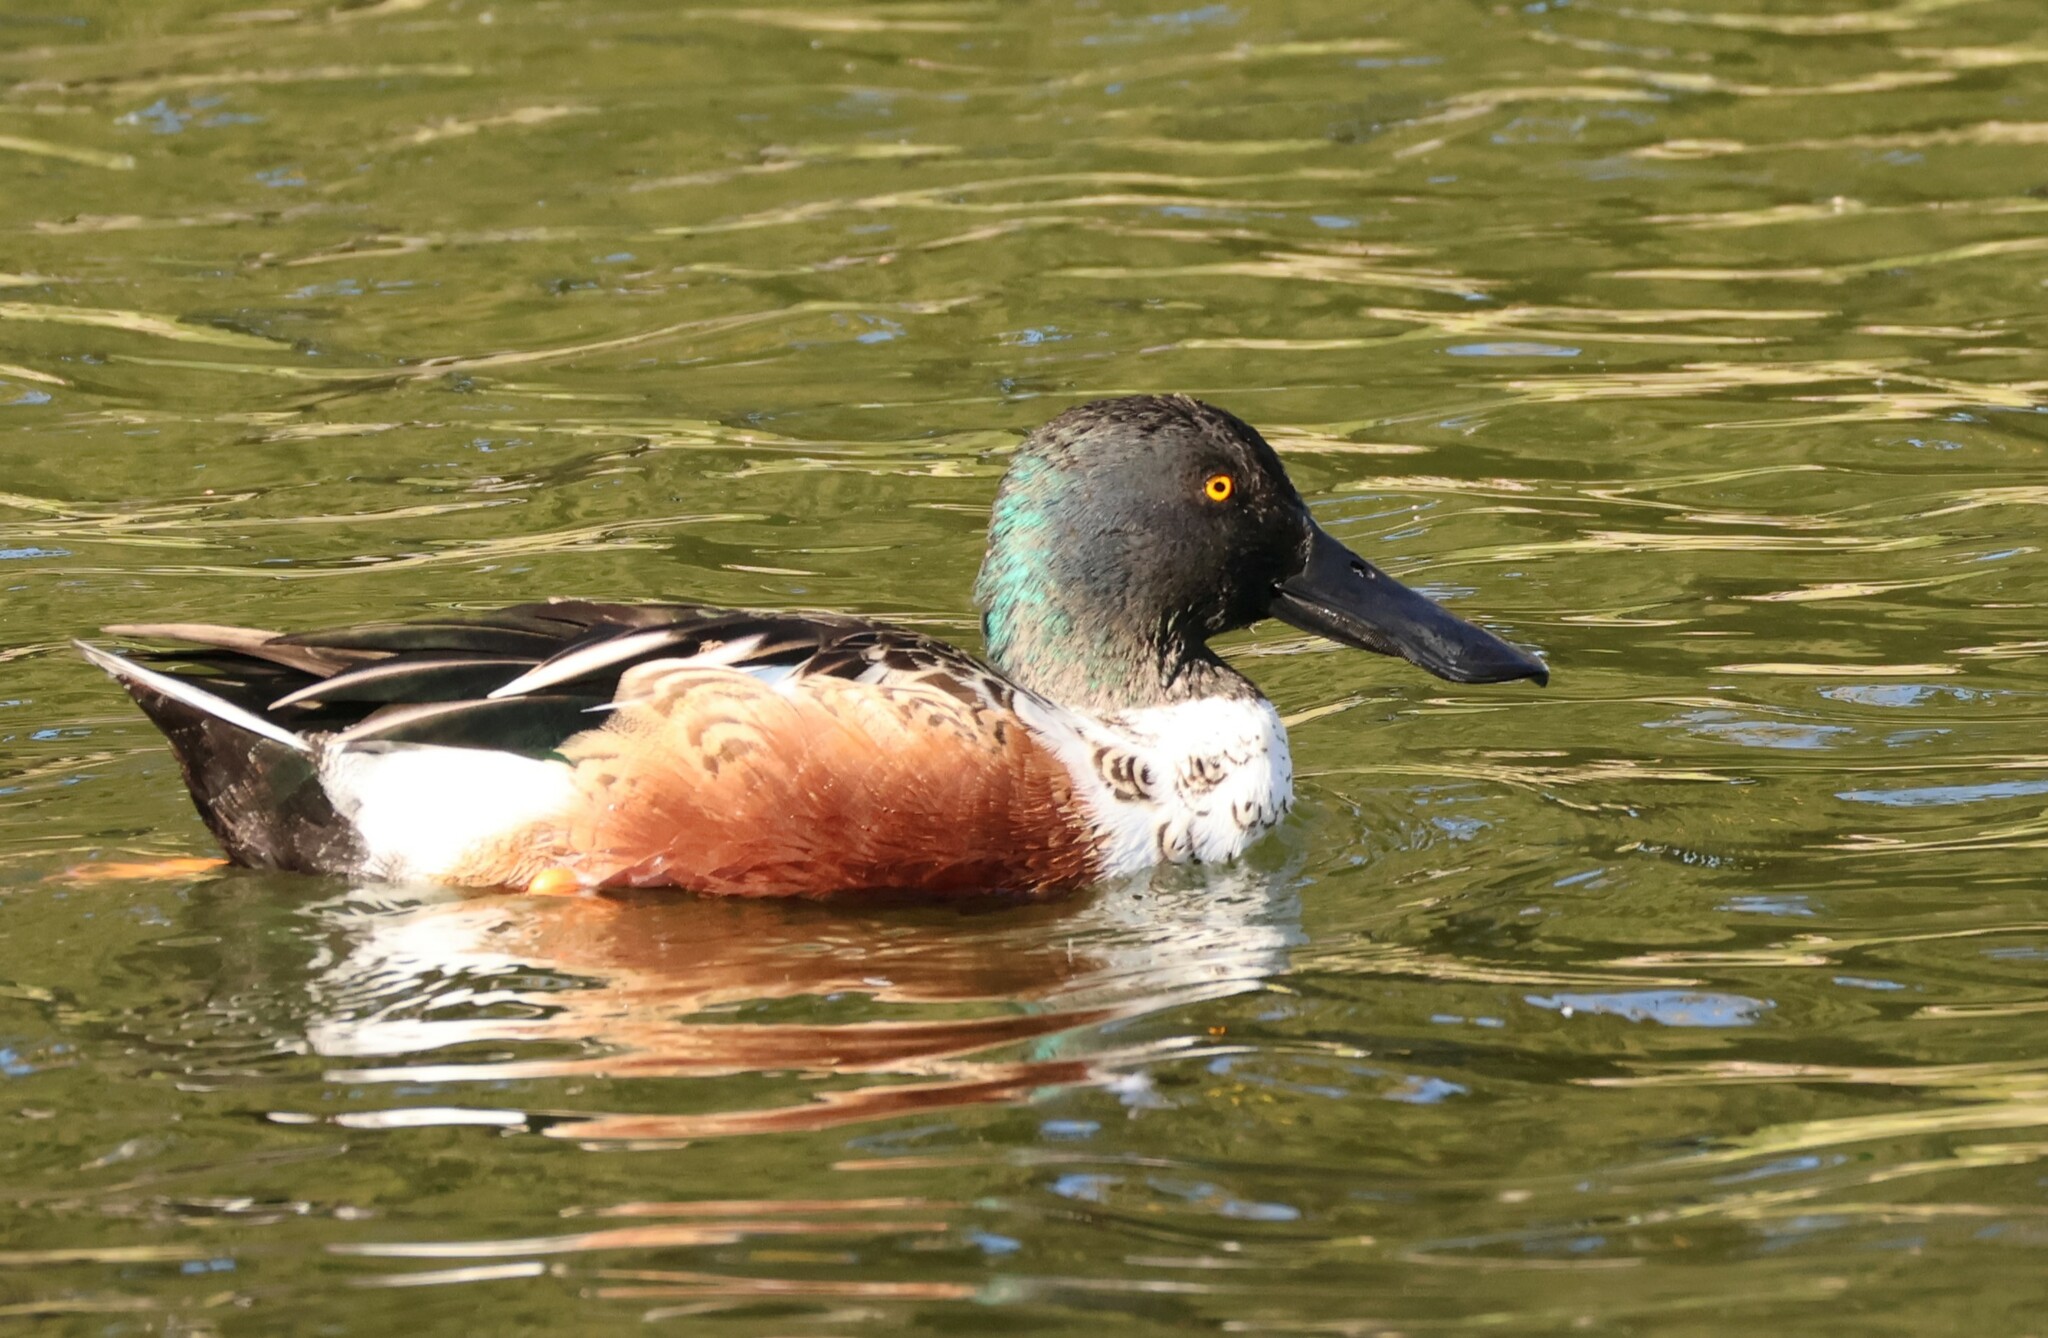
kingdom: Animalia
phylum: Chordata
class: Aves
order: Anseriformes
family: Anatidae
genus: Spatula
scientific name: Spatula clypeata
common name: Northern shoveler
